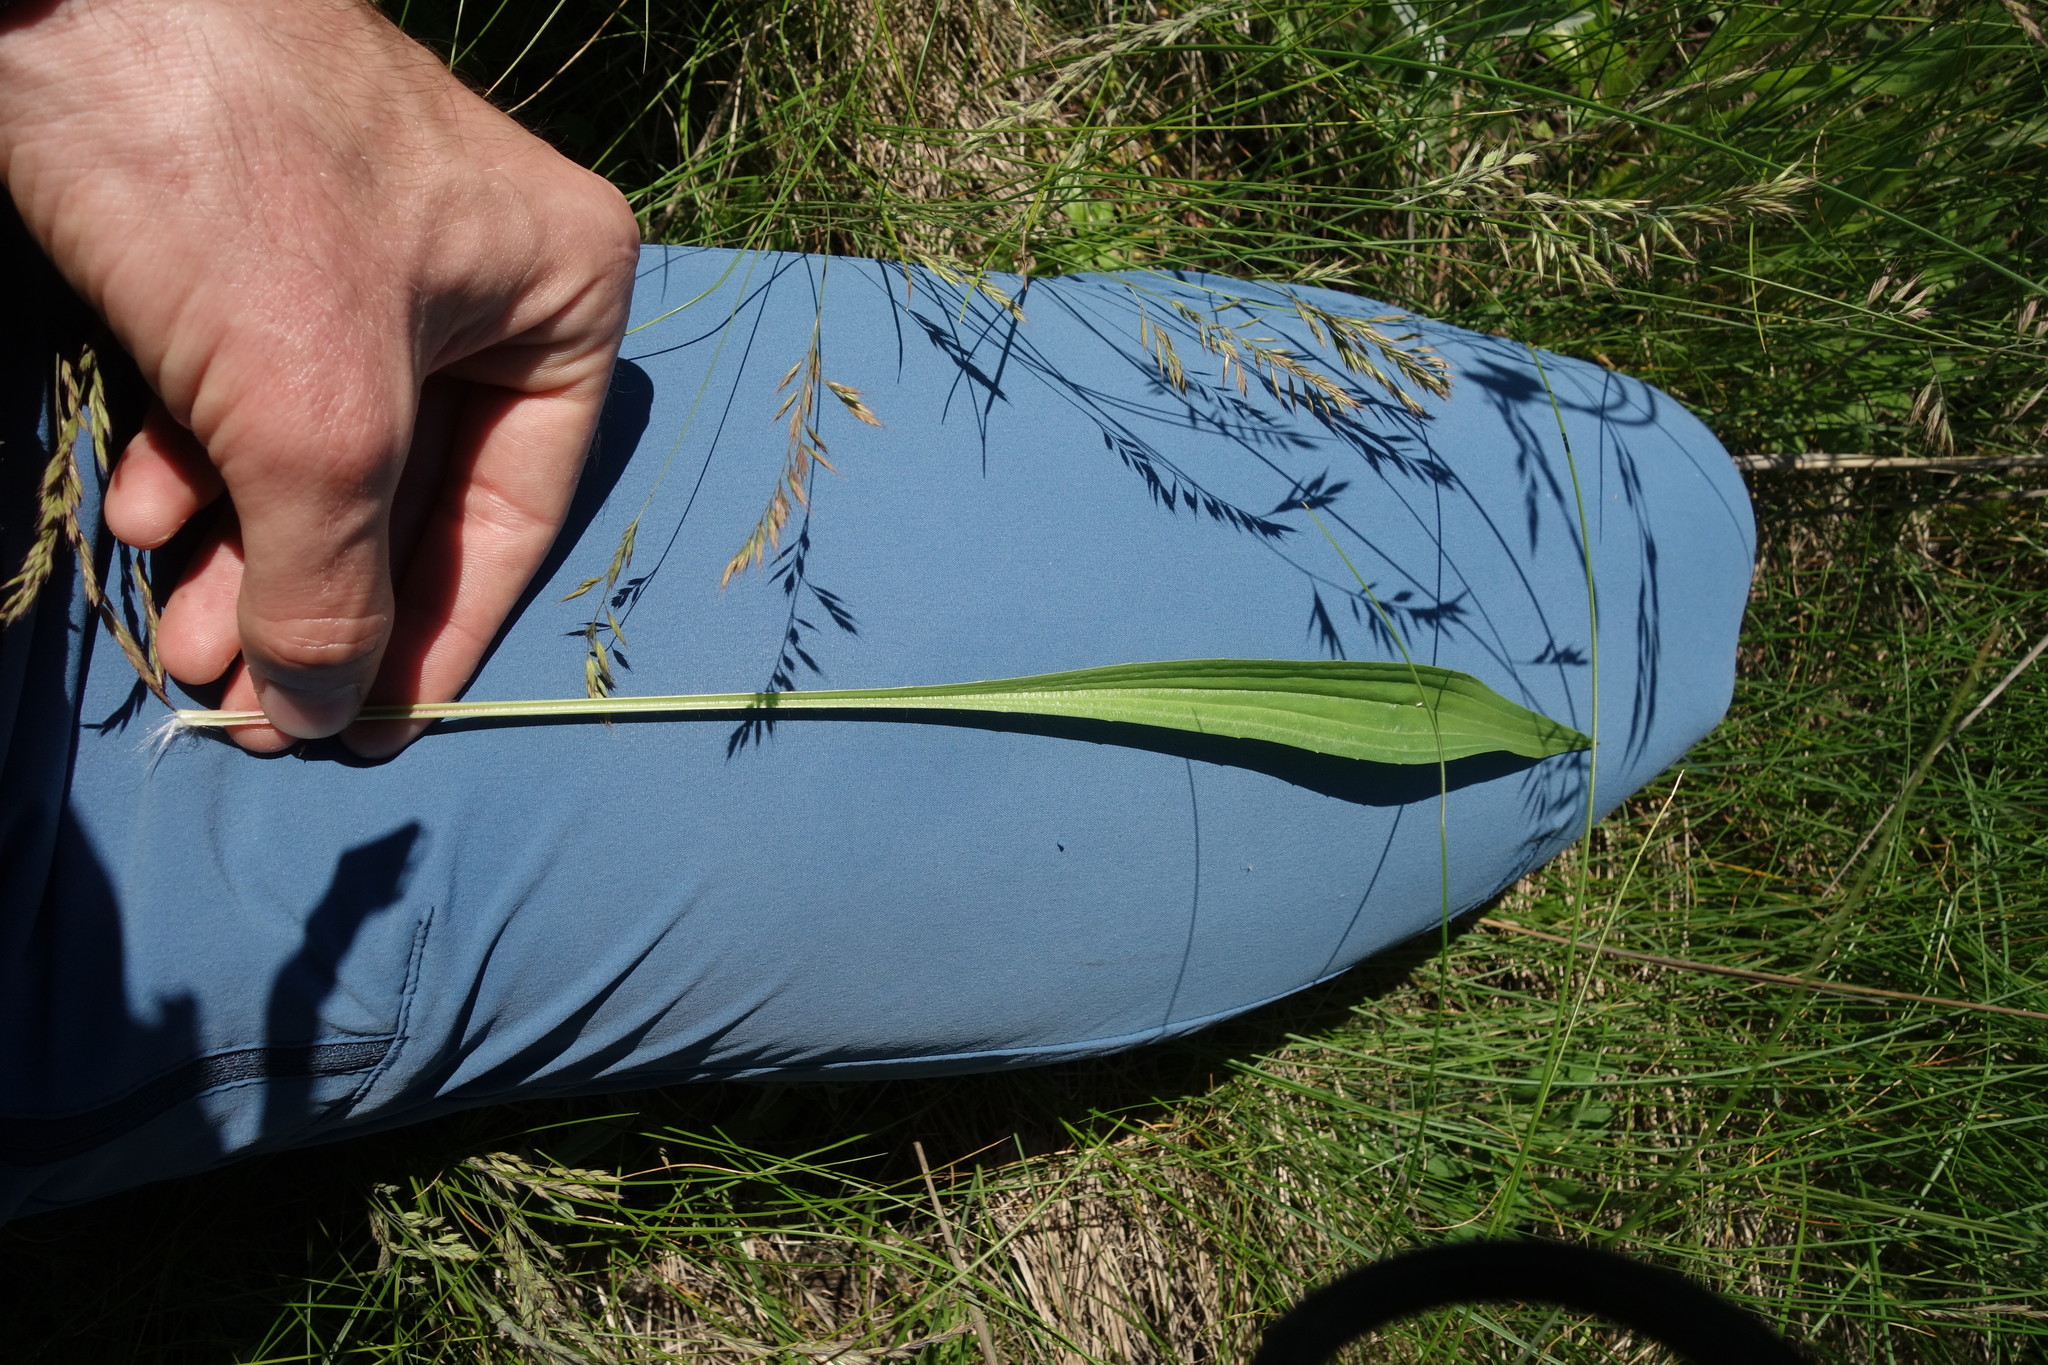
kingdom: Plantae
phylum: Tracheophyta
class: Magnoliopsida
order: Lamiales
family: Plantaginaceae
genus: Plantago
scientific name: Plantago lanceolata
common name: Ribwort plantain
